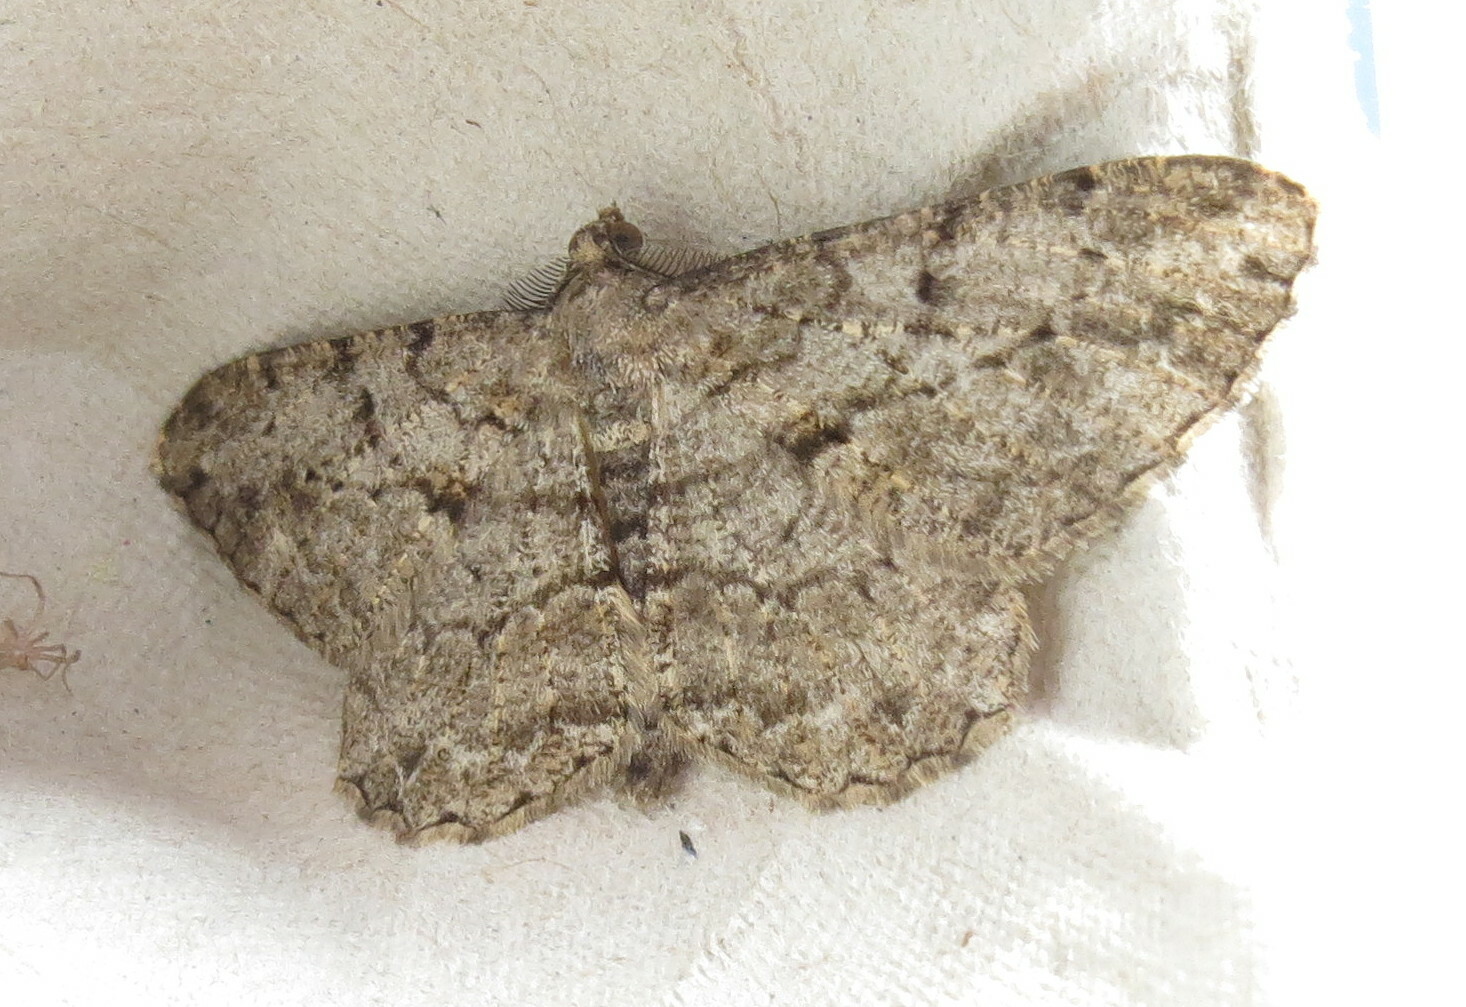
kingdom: Animalia
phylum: Arthropoda
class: Insecta
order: Lepidoptera
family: Geometridae
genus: Peribatodes
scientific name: Peribatodes rhomboidaria
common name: Willow beauty
